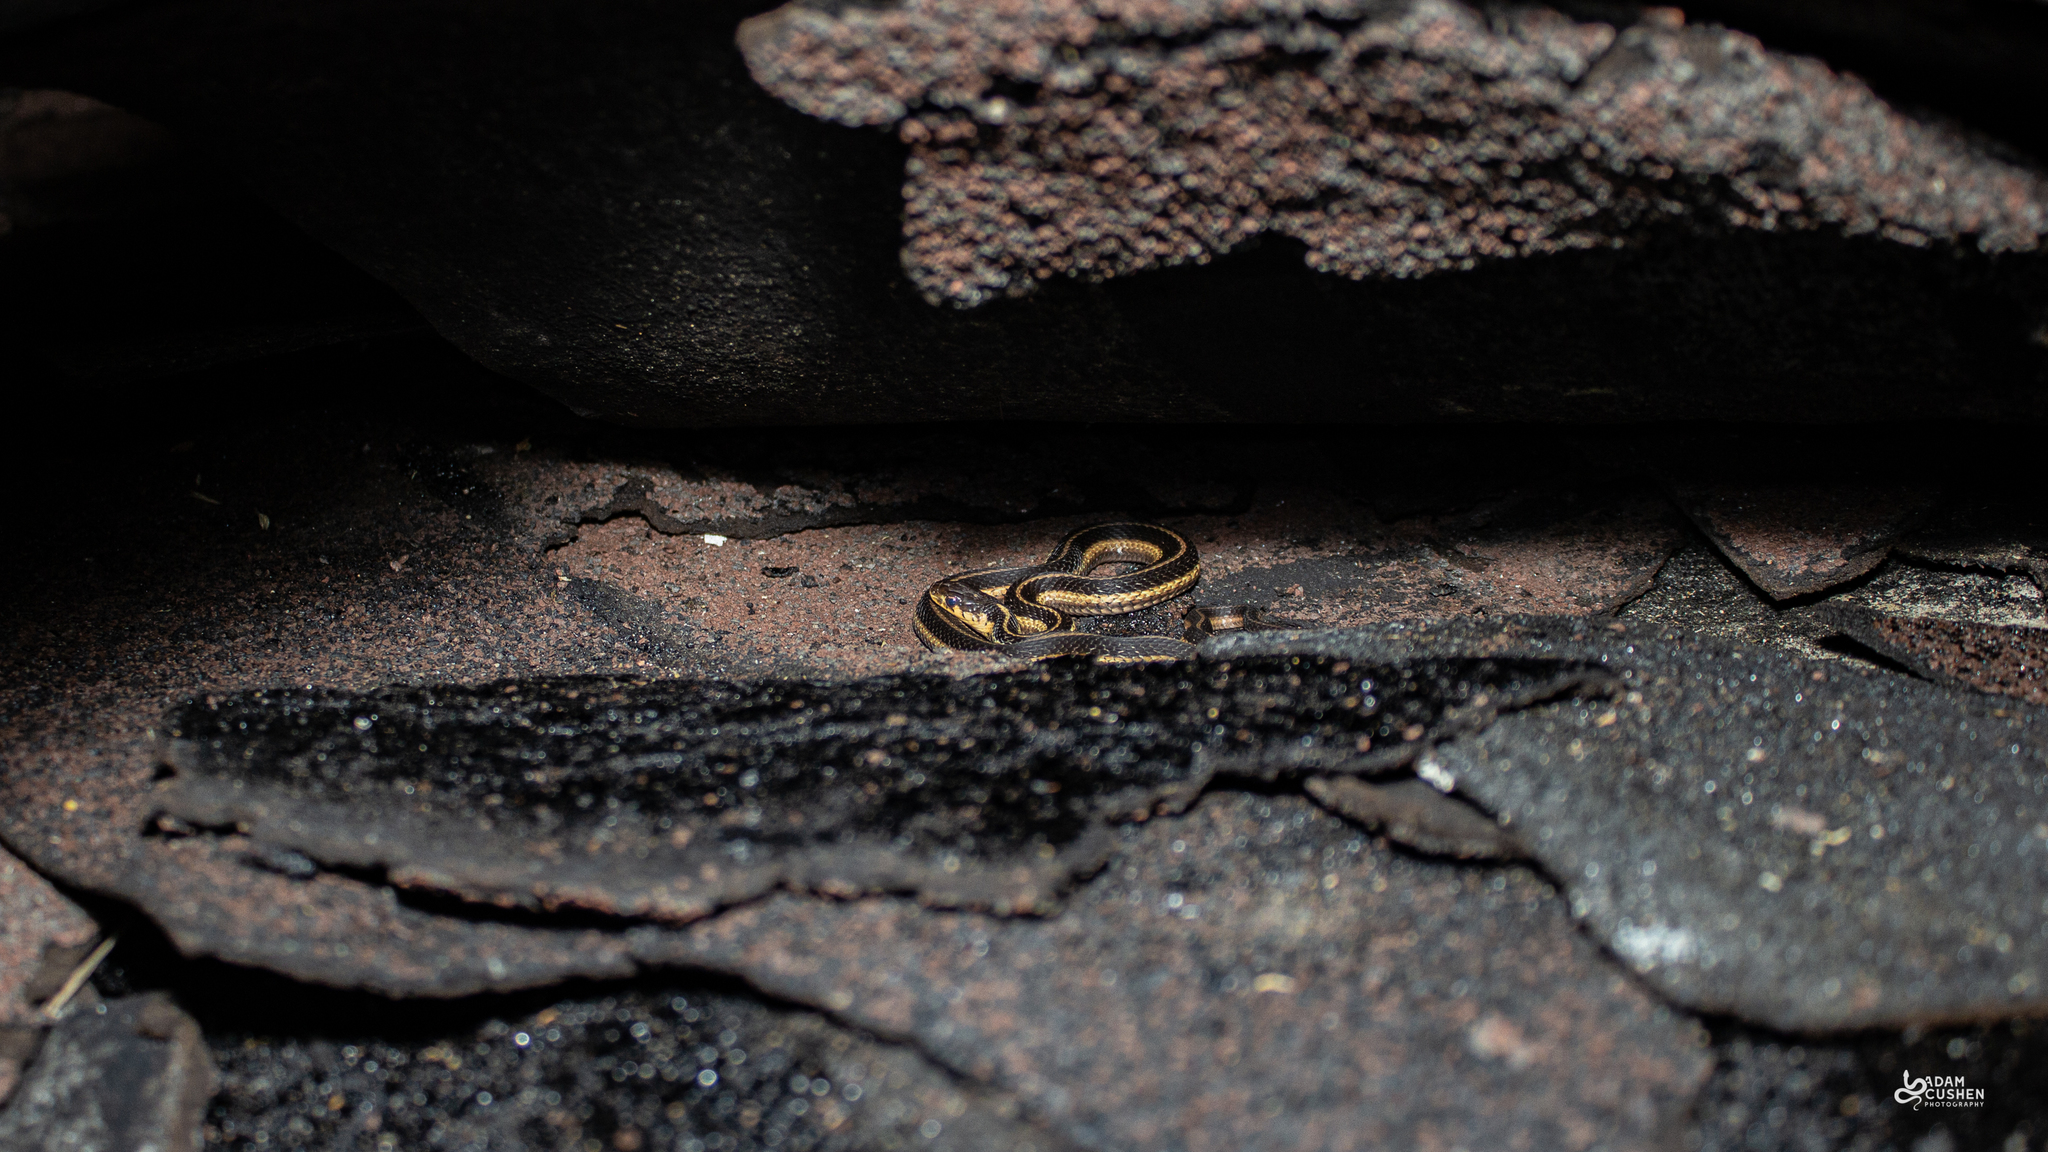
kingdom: Animalia
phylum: Chordata
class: Squamata
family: Colubridae
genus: Thamnophis
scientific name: Thamnophis sirtalis
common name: Common garter snake
